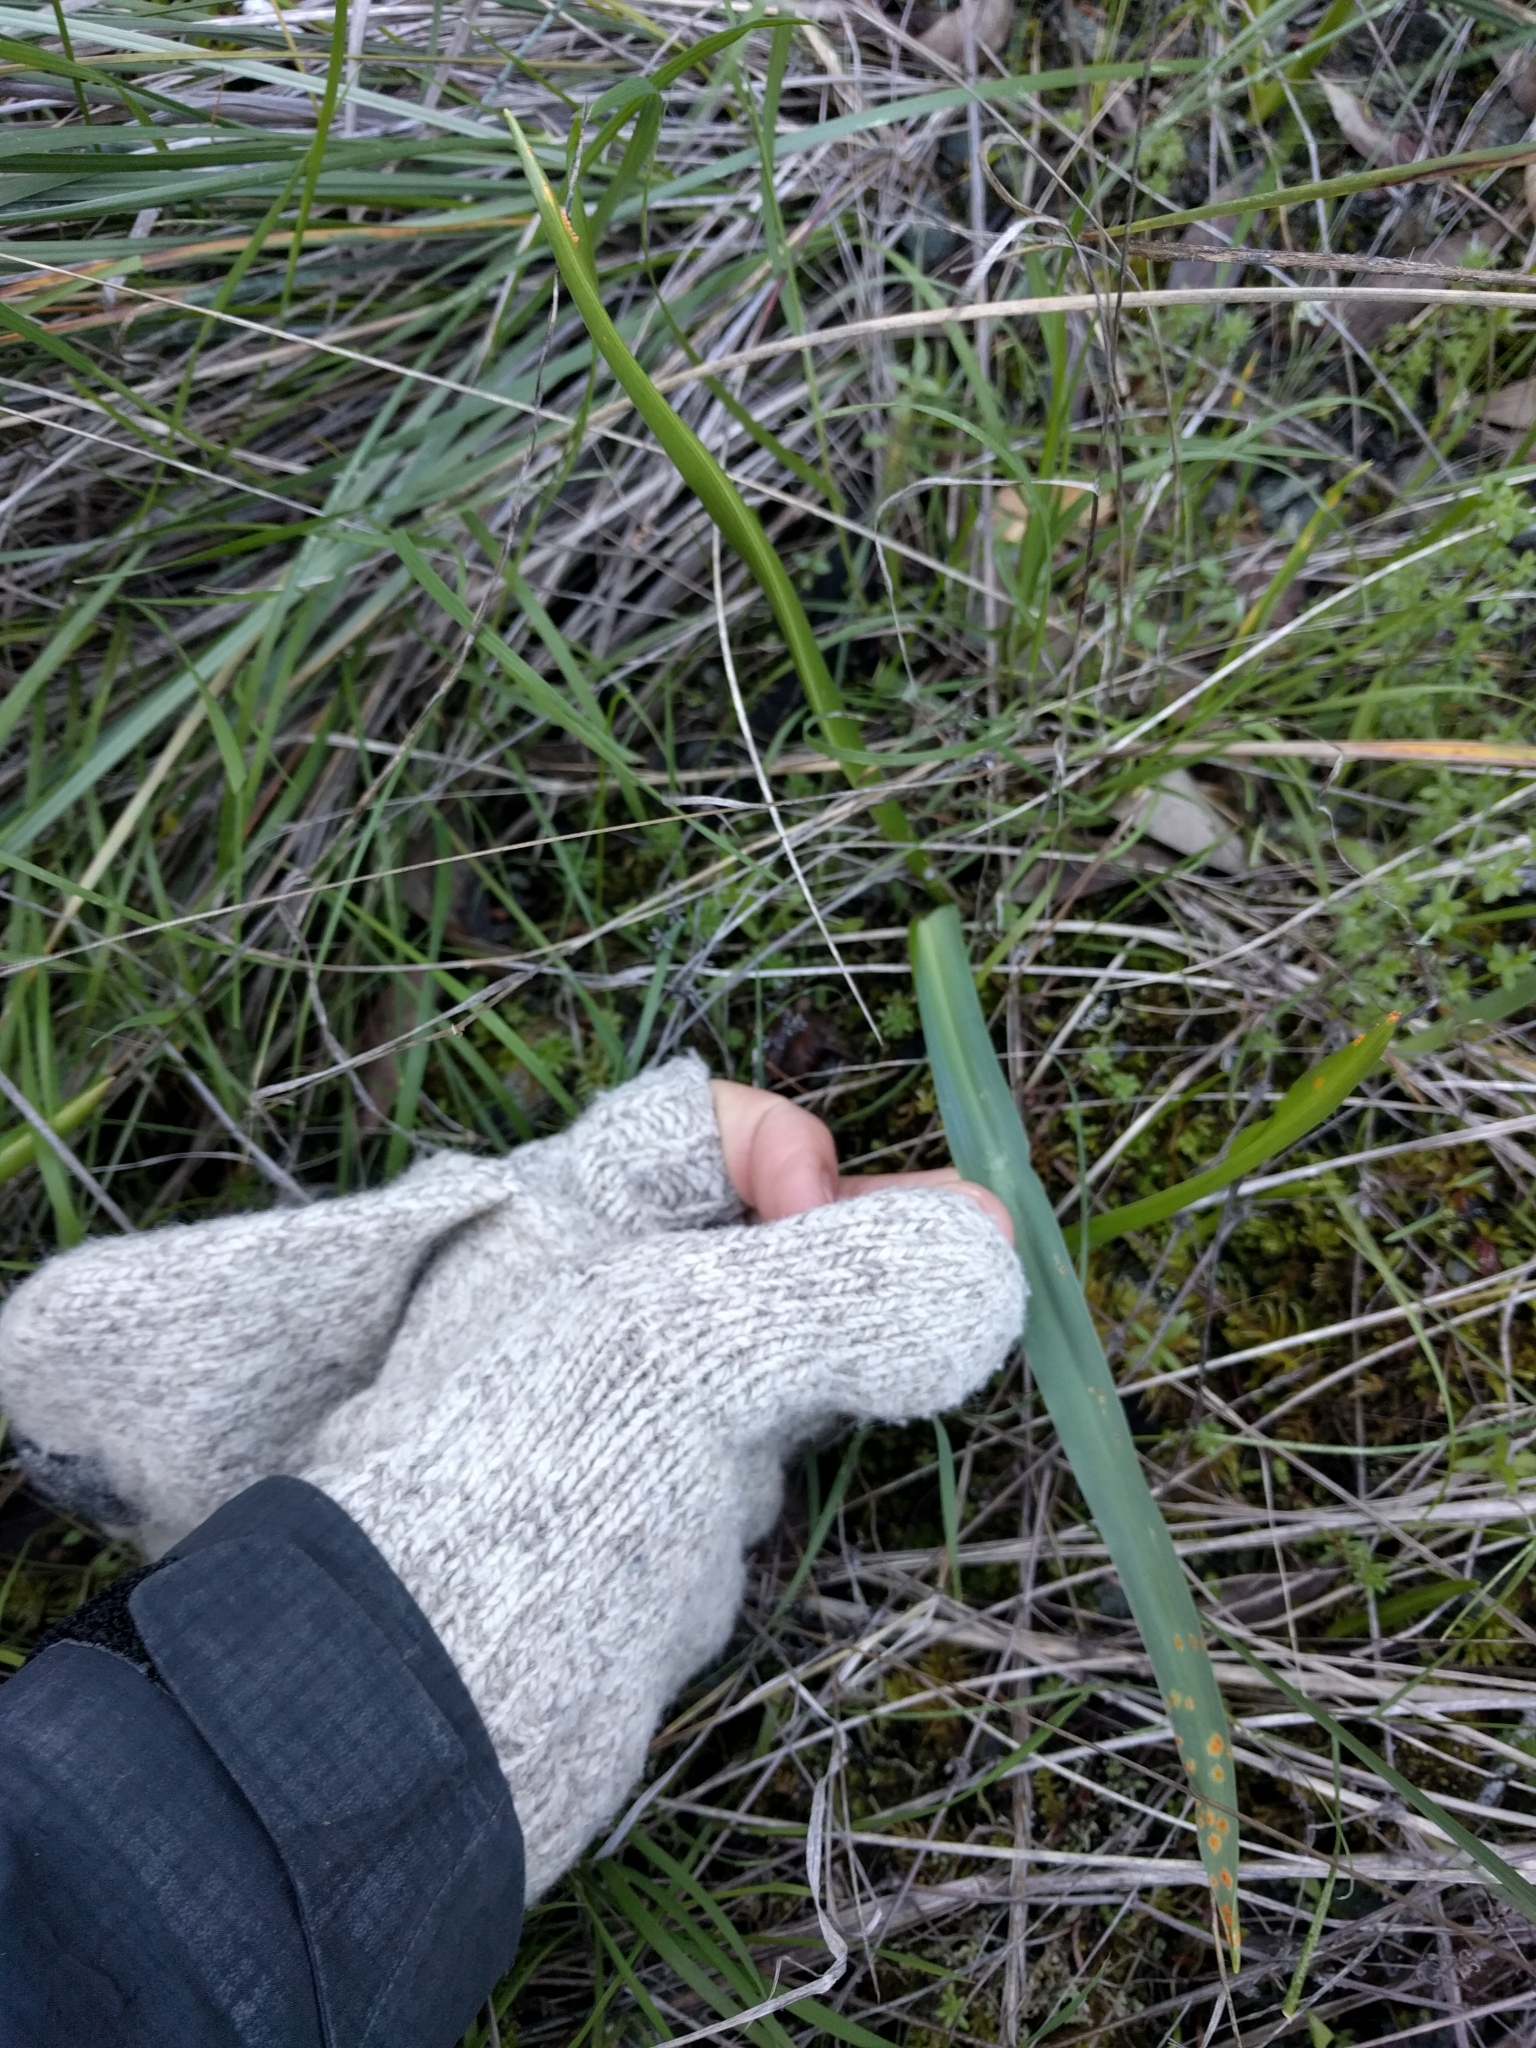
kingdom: Plantae
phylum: Tracheophyta
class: Liliopsida
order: Asparagales
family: Asparagaceae
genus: Chlorogalum
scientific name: Chlorogalum pomeridianum
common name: Amole
